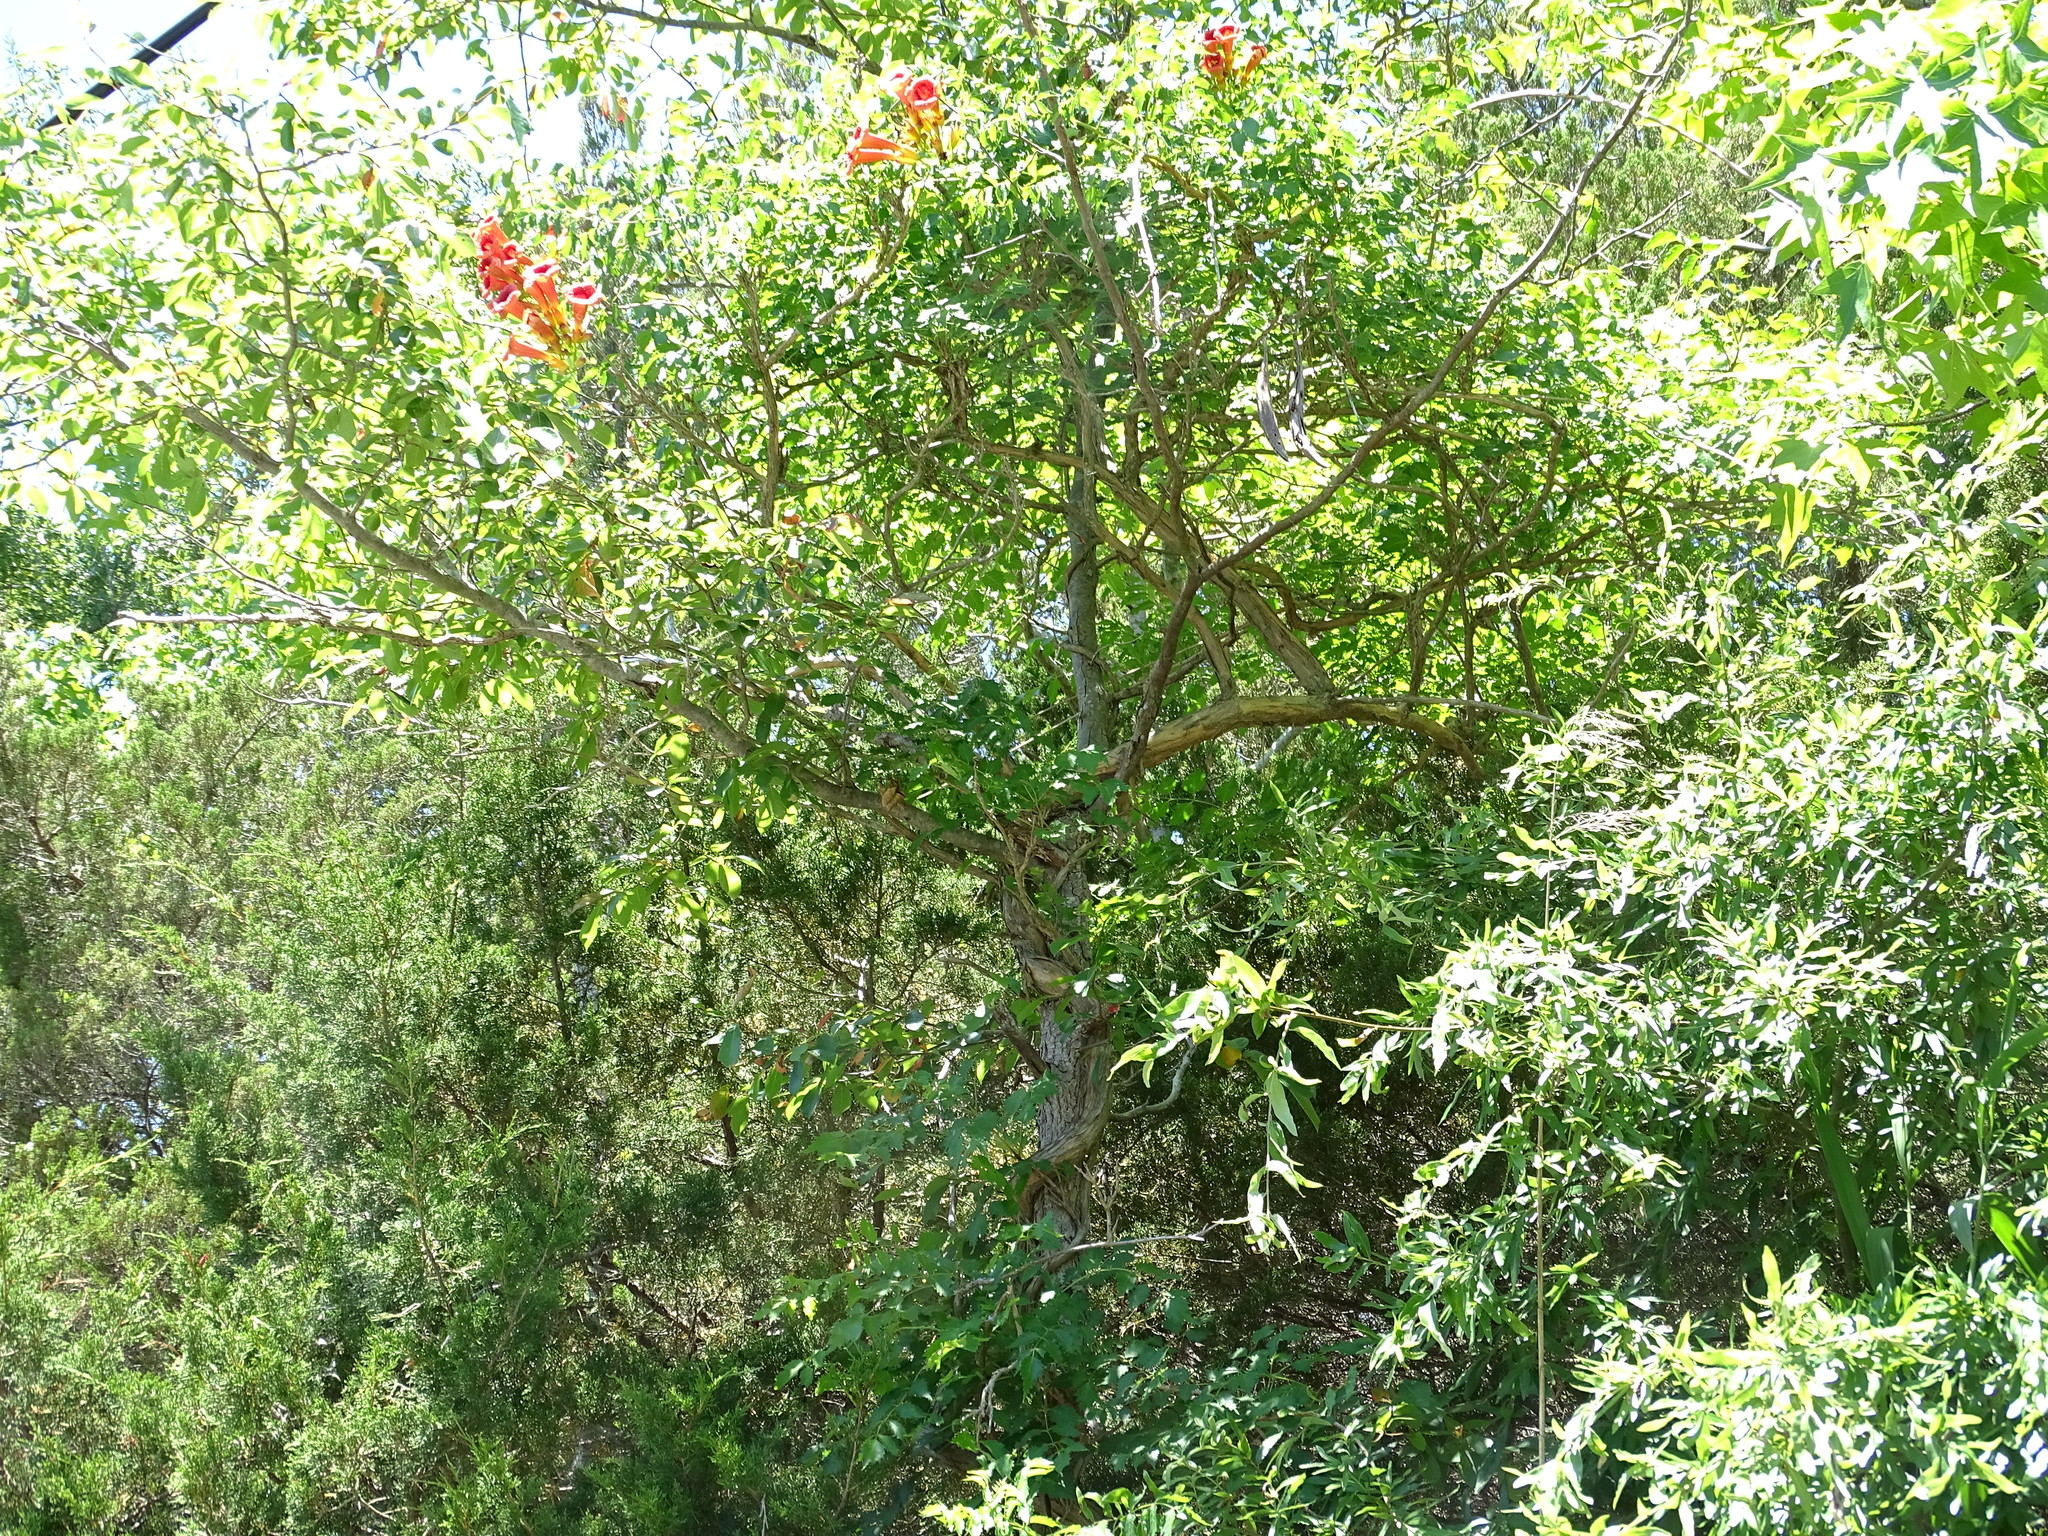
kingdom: Plantae
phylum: Tracheophyta
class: Magnoliopsida
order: Lamiales
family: Bignoniaceae
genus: Campsis
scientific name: Campsis radicans
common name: Trumpet-creeper
